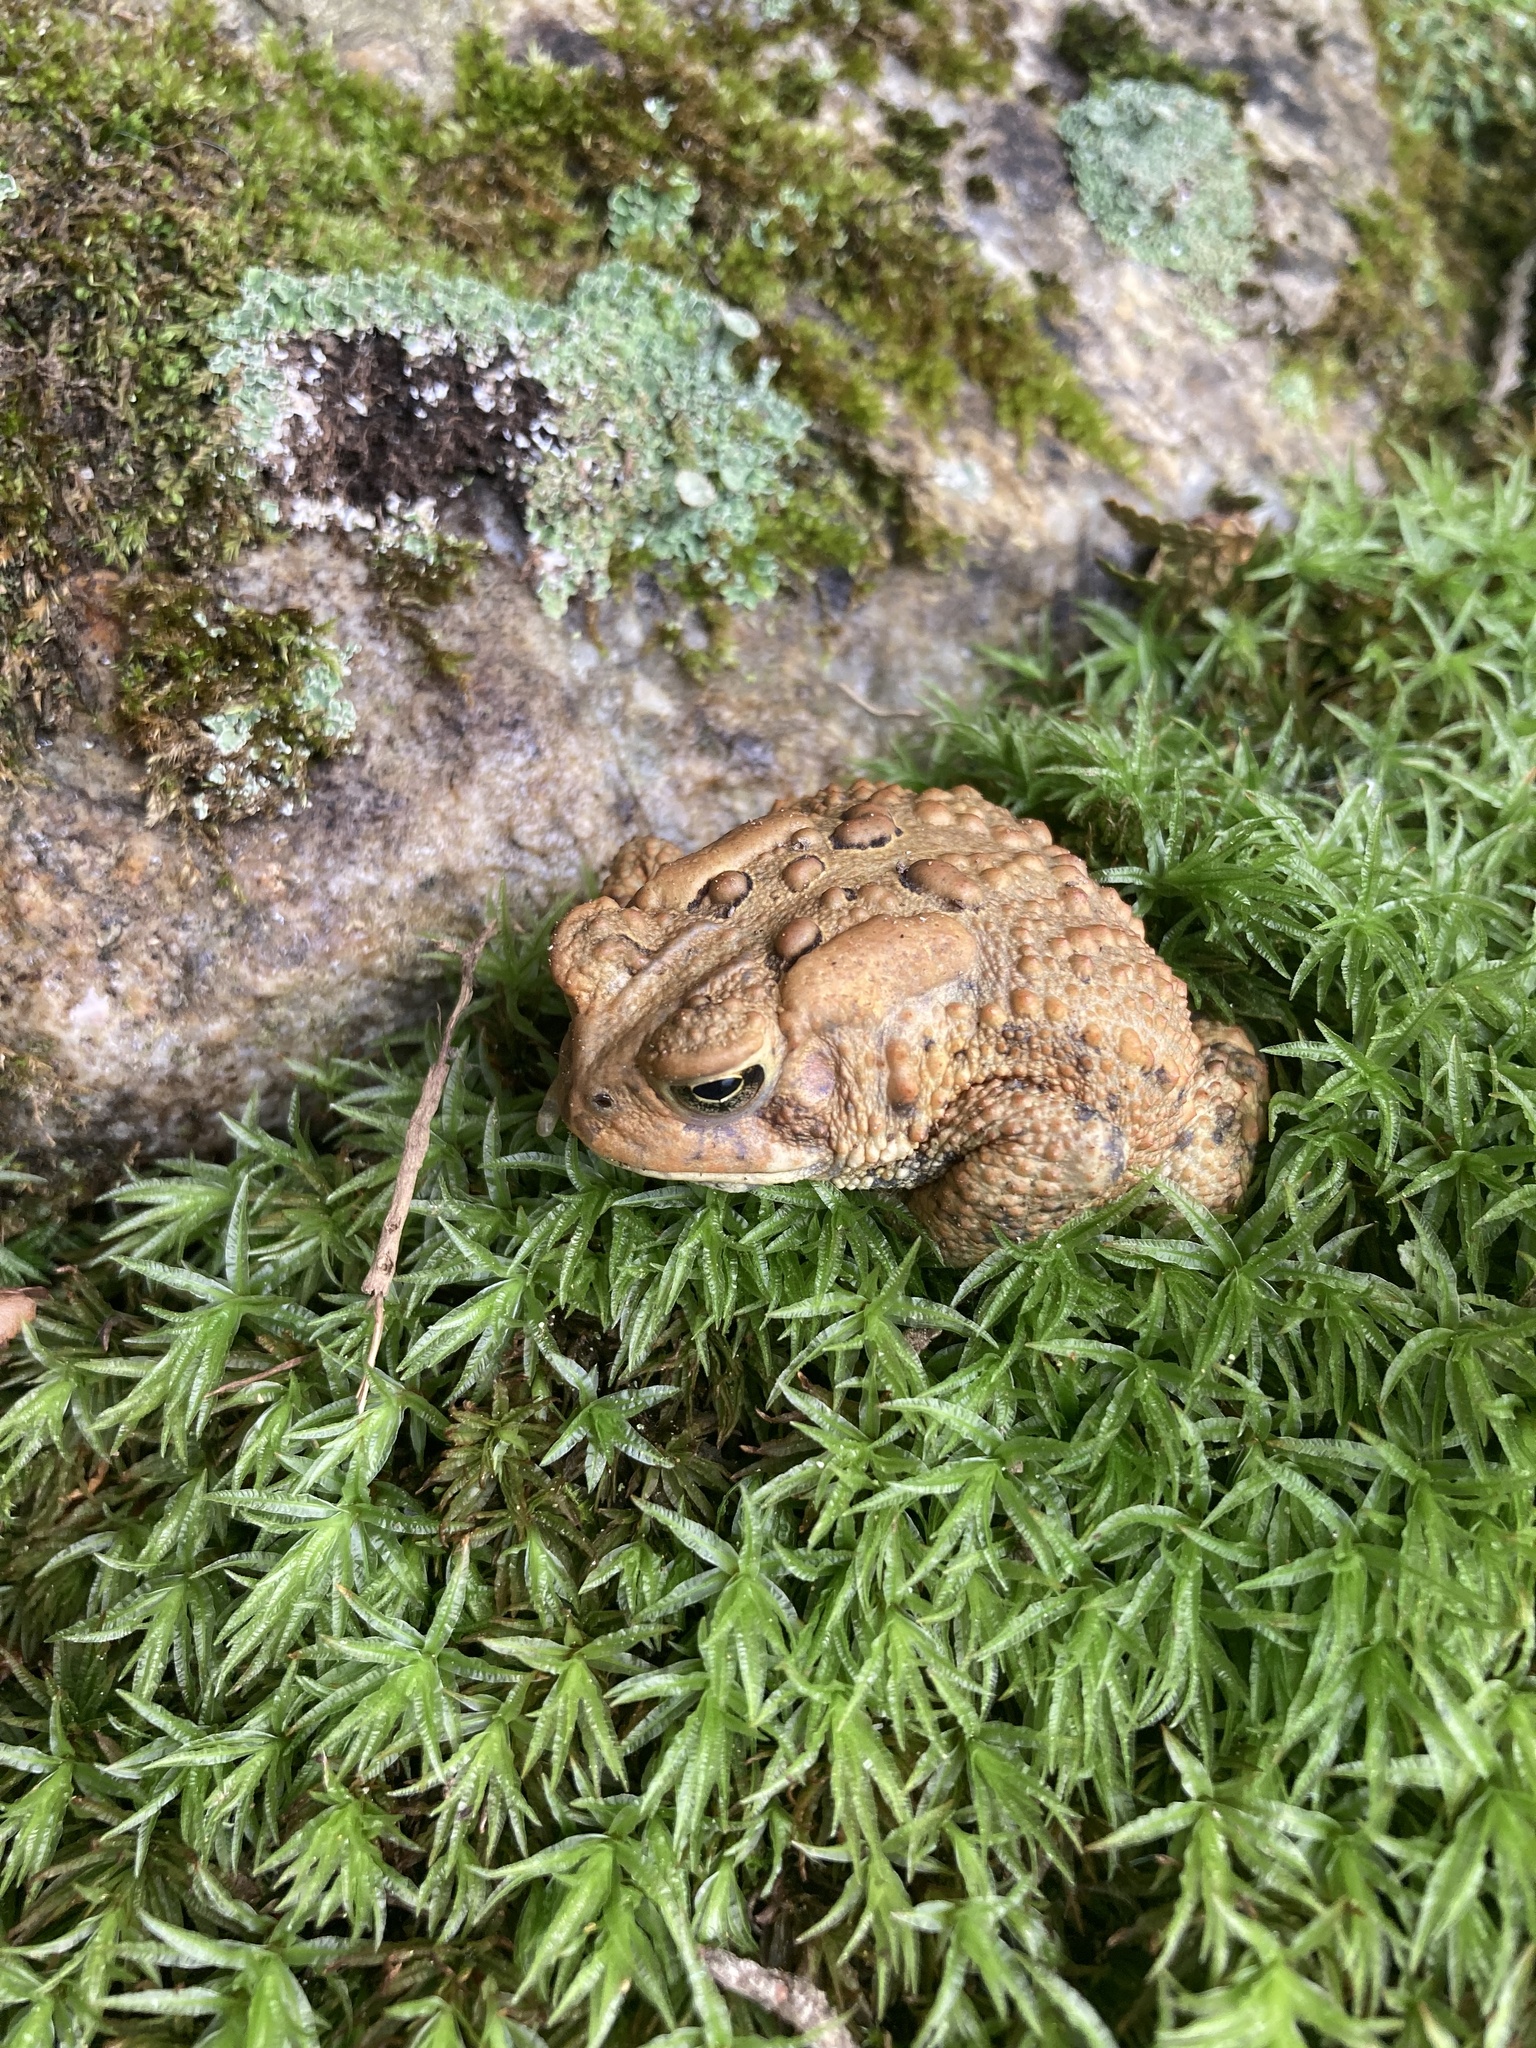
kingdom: Animalia
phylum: Chordata
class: Amphibia
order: Anura
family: Bufonidae
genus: Anaxyrus
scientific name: Anaxyrus americanus
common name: American toad
